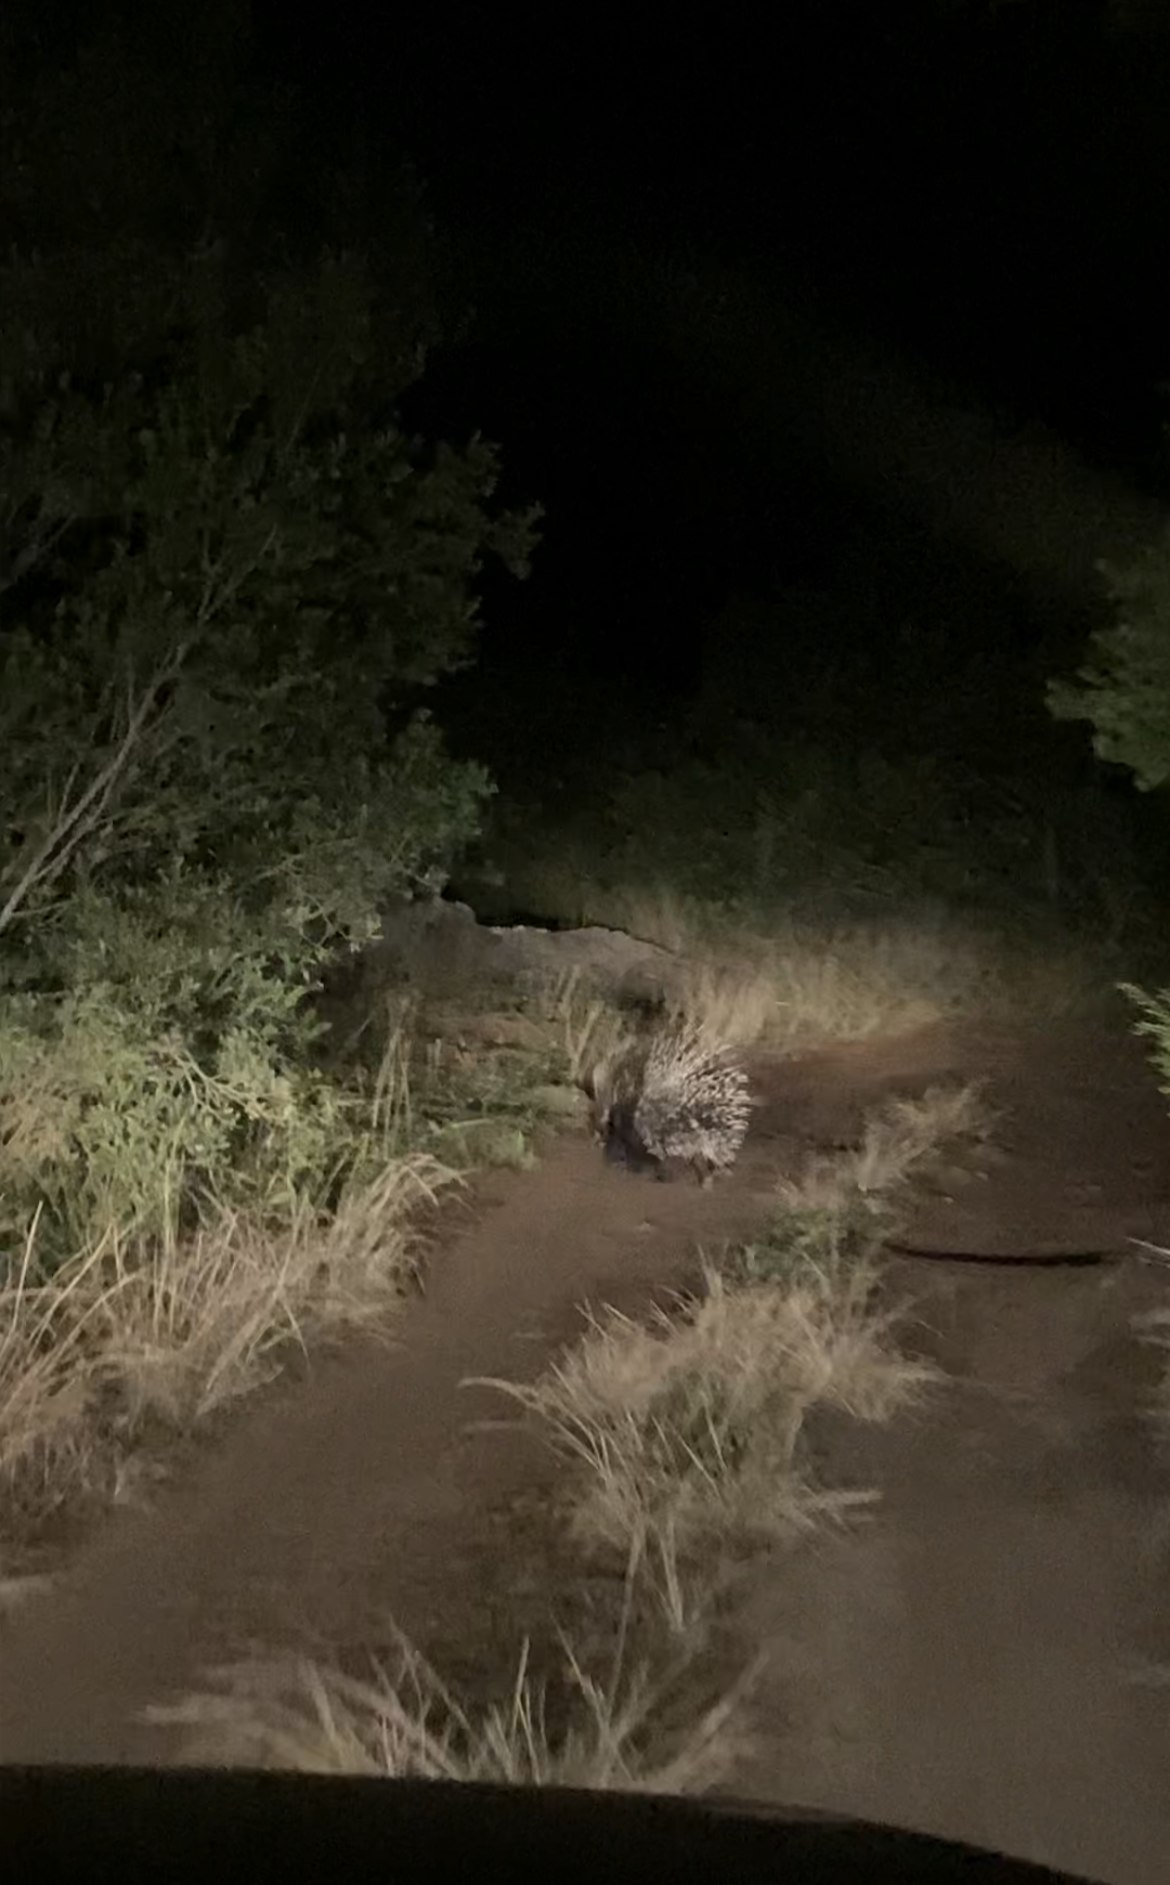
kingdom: Animalia
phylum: Chordata
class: Mammalia
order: Rodentia
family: Hystricidae
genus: Hystrix
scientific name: Hystrix africaeaustralis
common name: Cape porcupine
